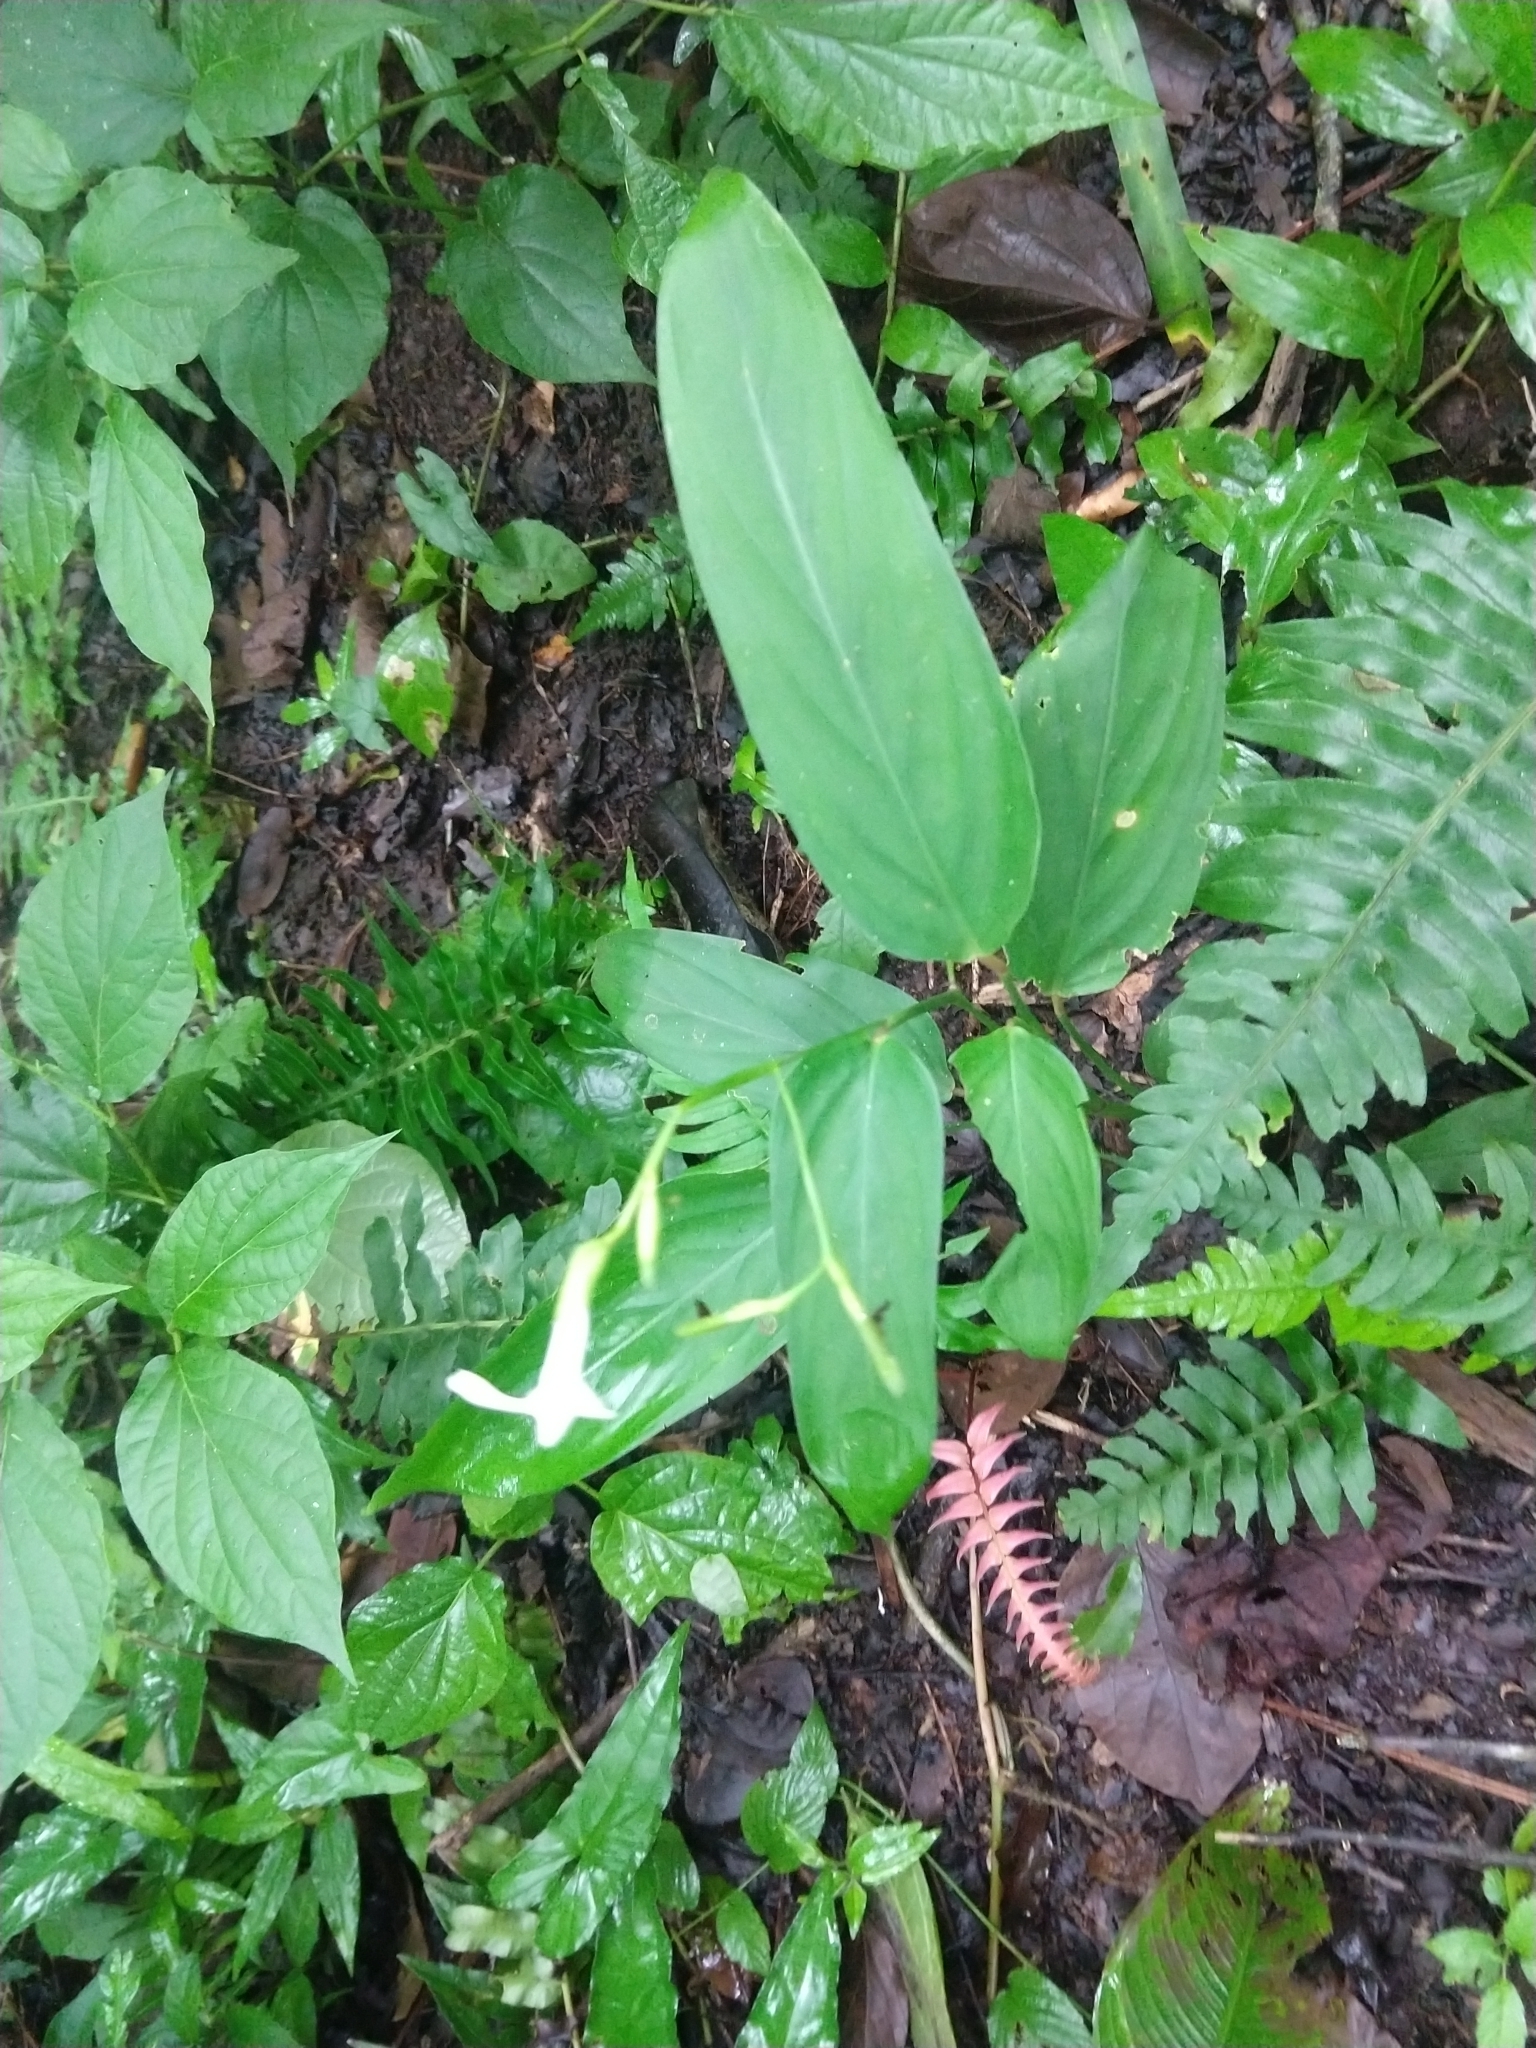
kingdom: Plantae
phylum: Tracheophyta
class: Liliopsida
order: Zingiberales
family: Marantaceae
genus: Maranta
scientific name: Maranta arundinacea
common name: Arrowroot
